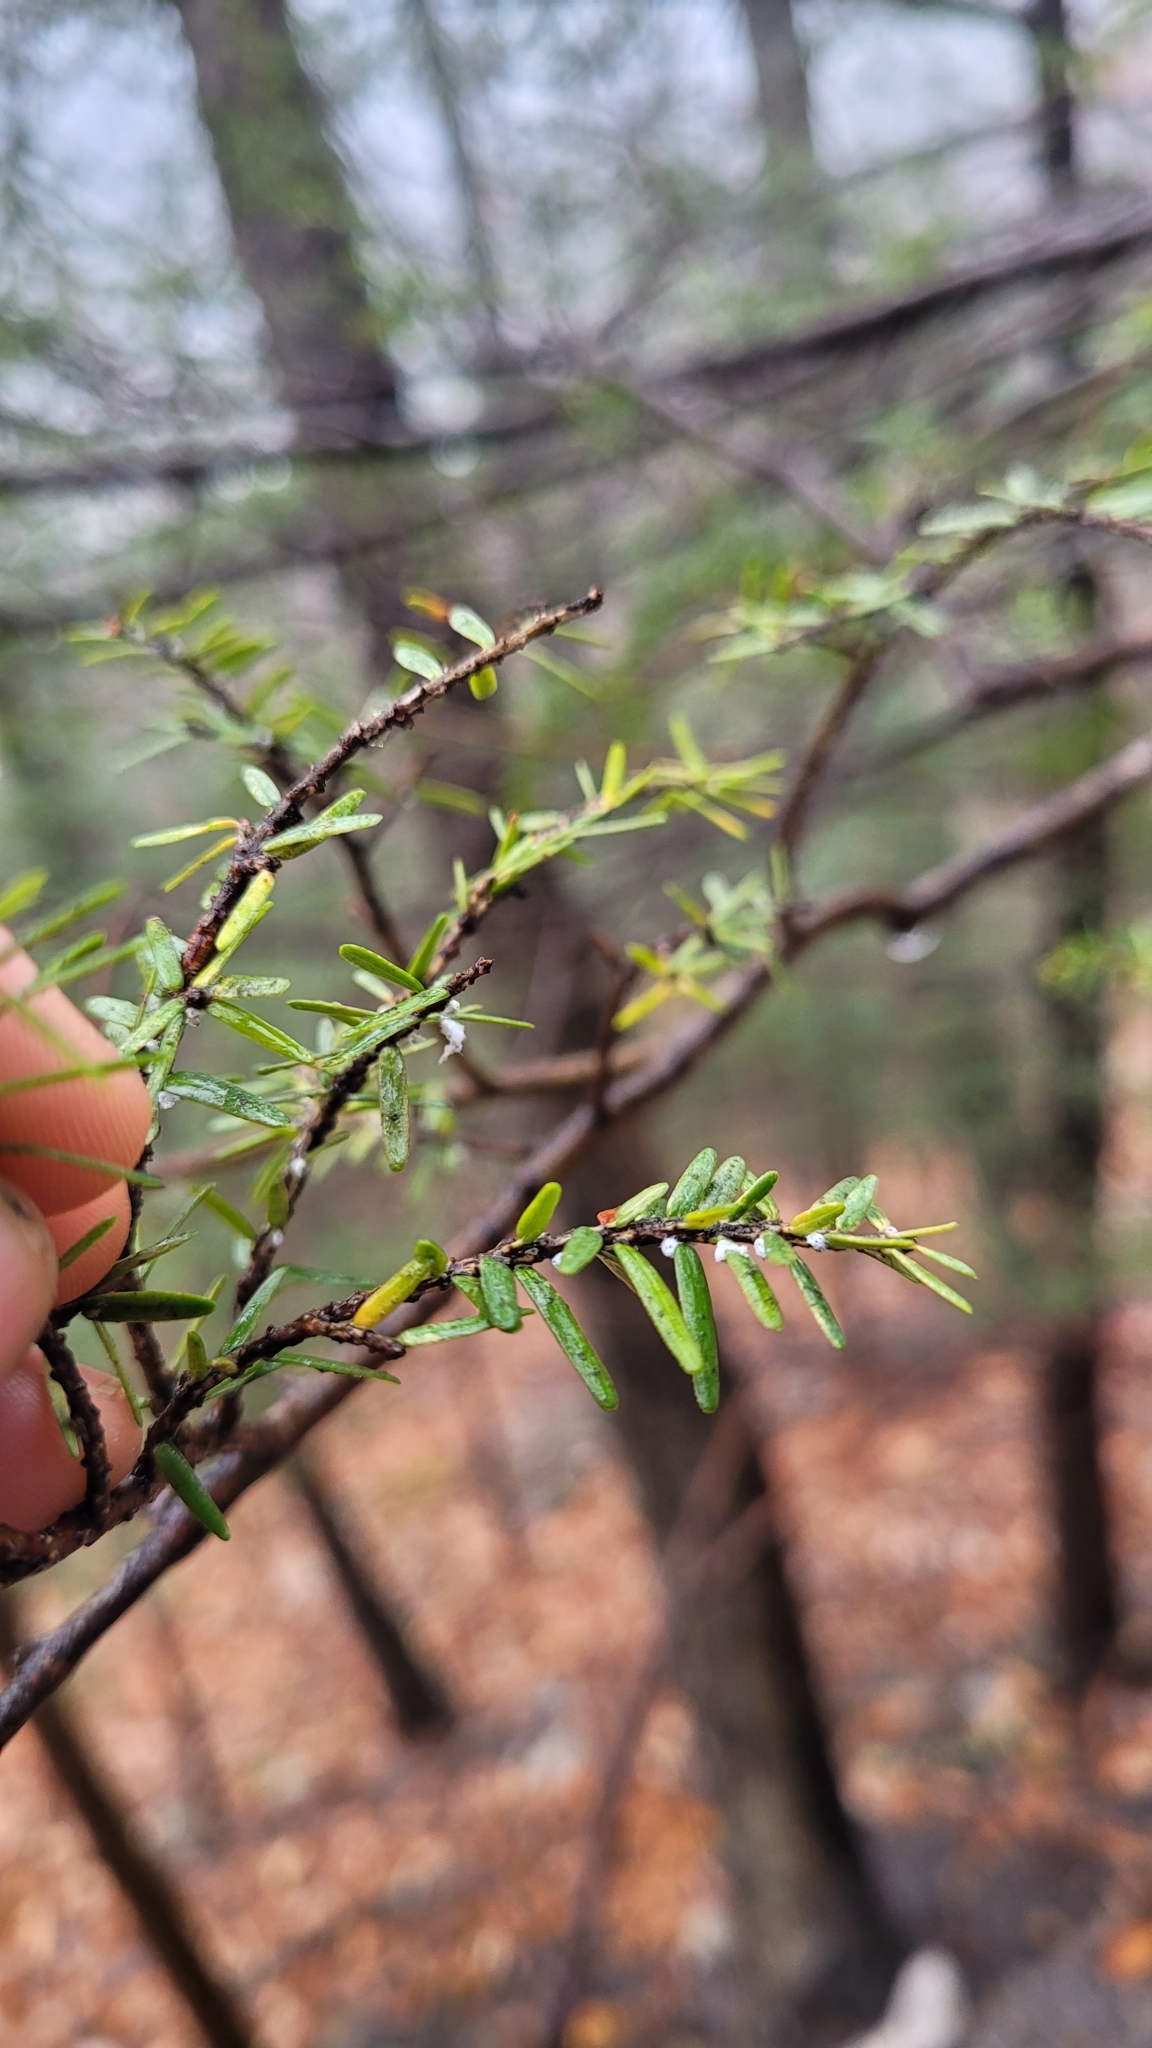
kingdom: Animalia
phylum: Arthropoda
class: Insecta
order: Hemiptera
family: Adelgidae
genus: Adelges
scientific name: Adelges tsugae
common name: Hemlock woolly adelgid
